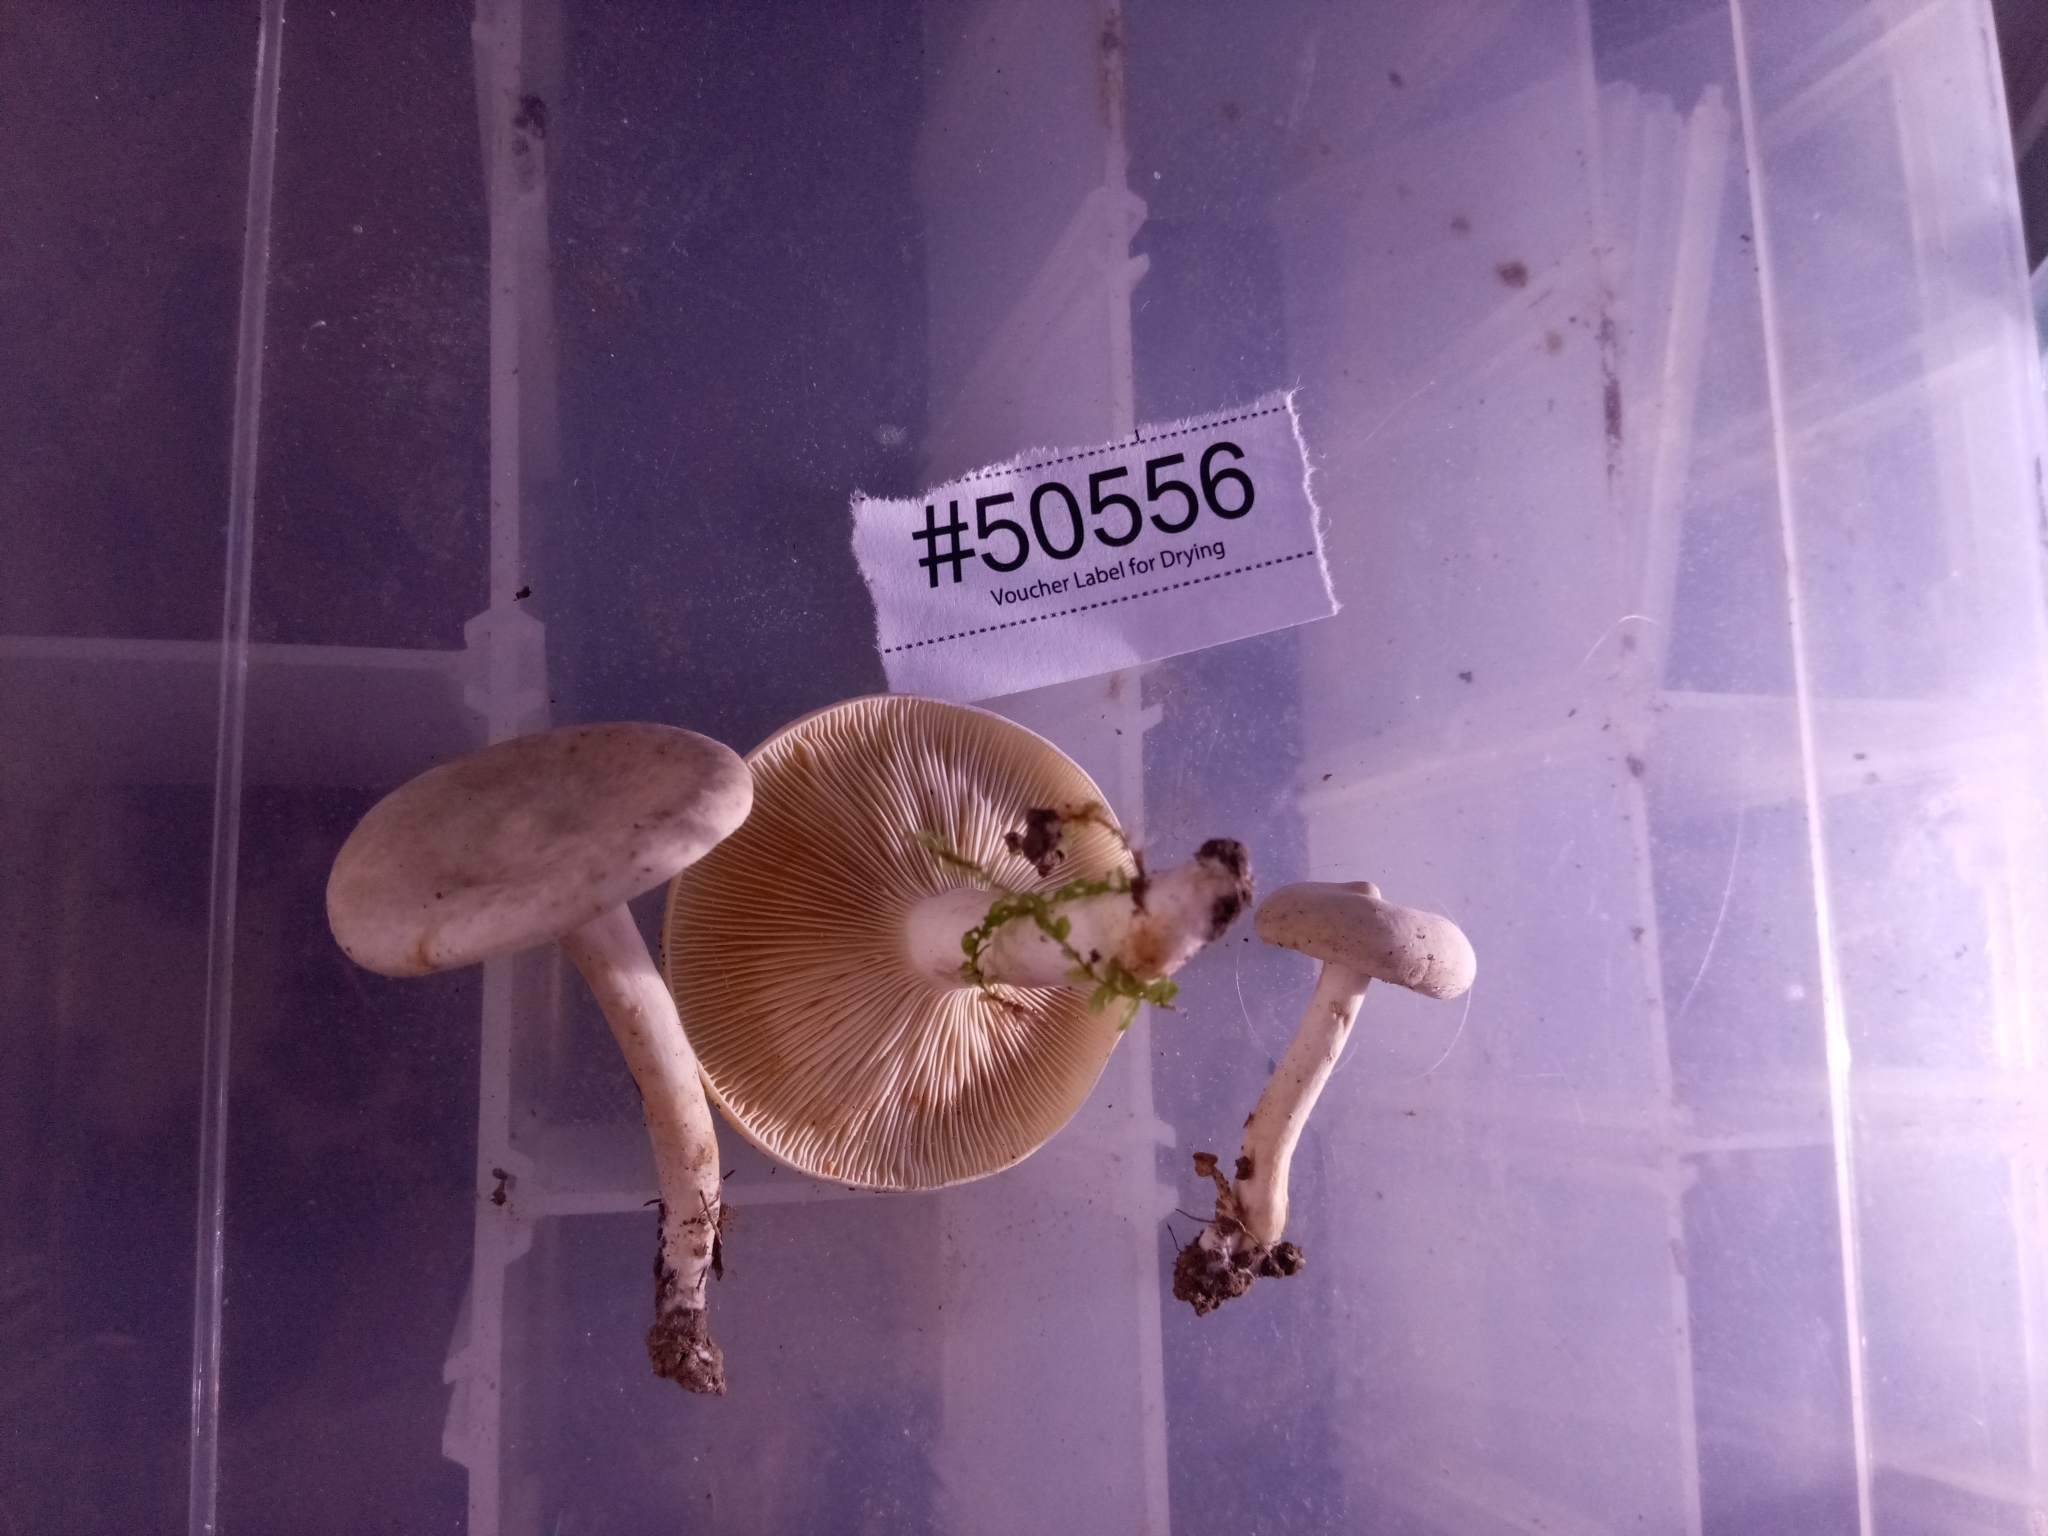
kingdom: Fungi
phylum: Basidiomycota
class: Agaricomycetes
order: Russulales
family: Russulaceae
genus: Lactarius
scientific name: Lactarius subvernalis
